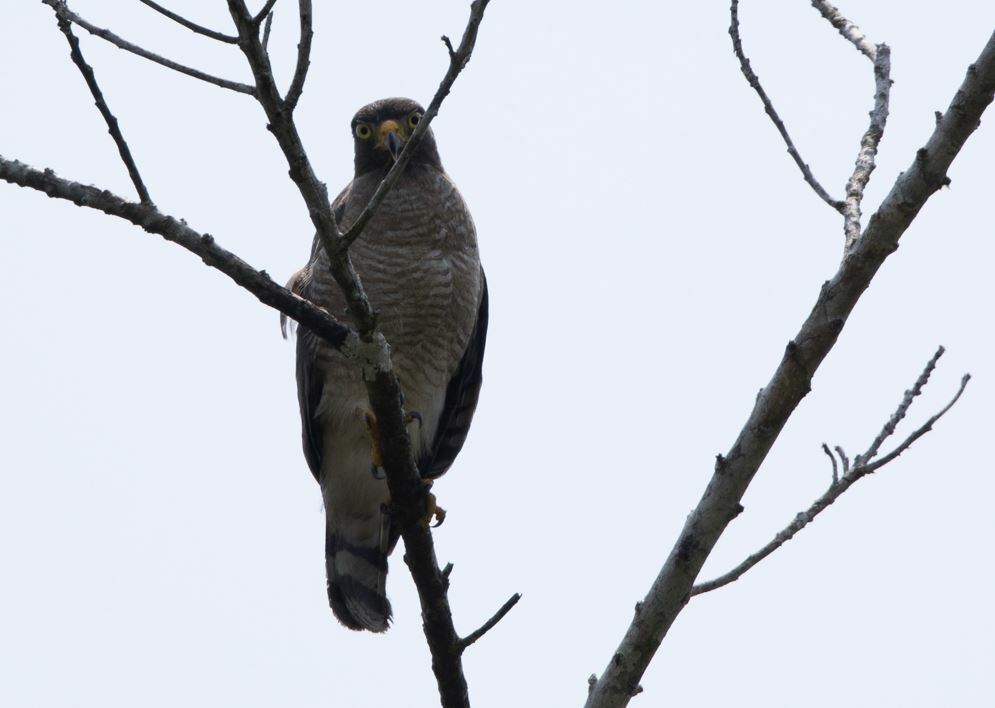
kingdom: Animalia
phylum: Chordata
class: Aves
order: Accipitriformes
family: Accipitridae
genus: Rupornis
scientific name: Rupornis magnirostris
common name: Roadside hawk
